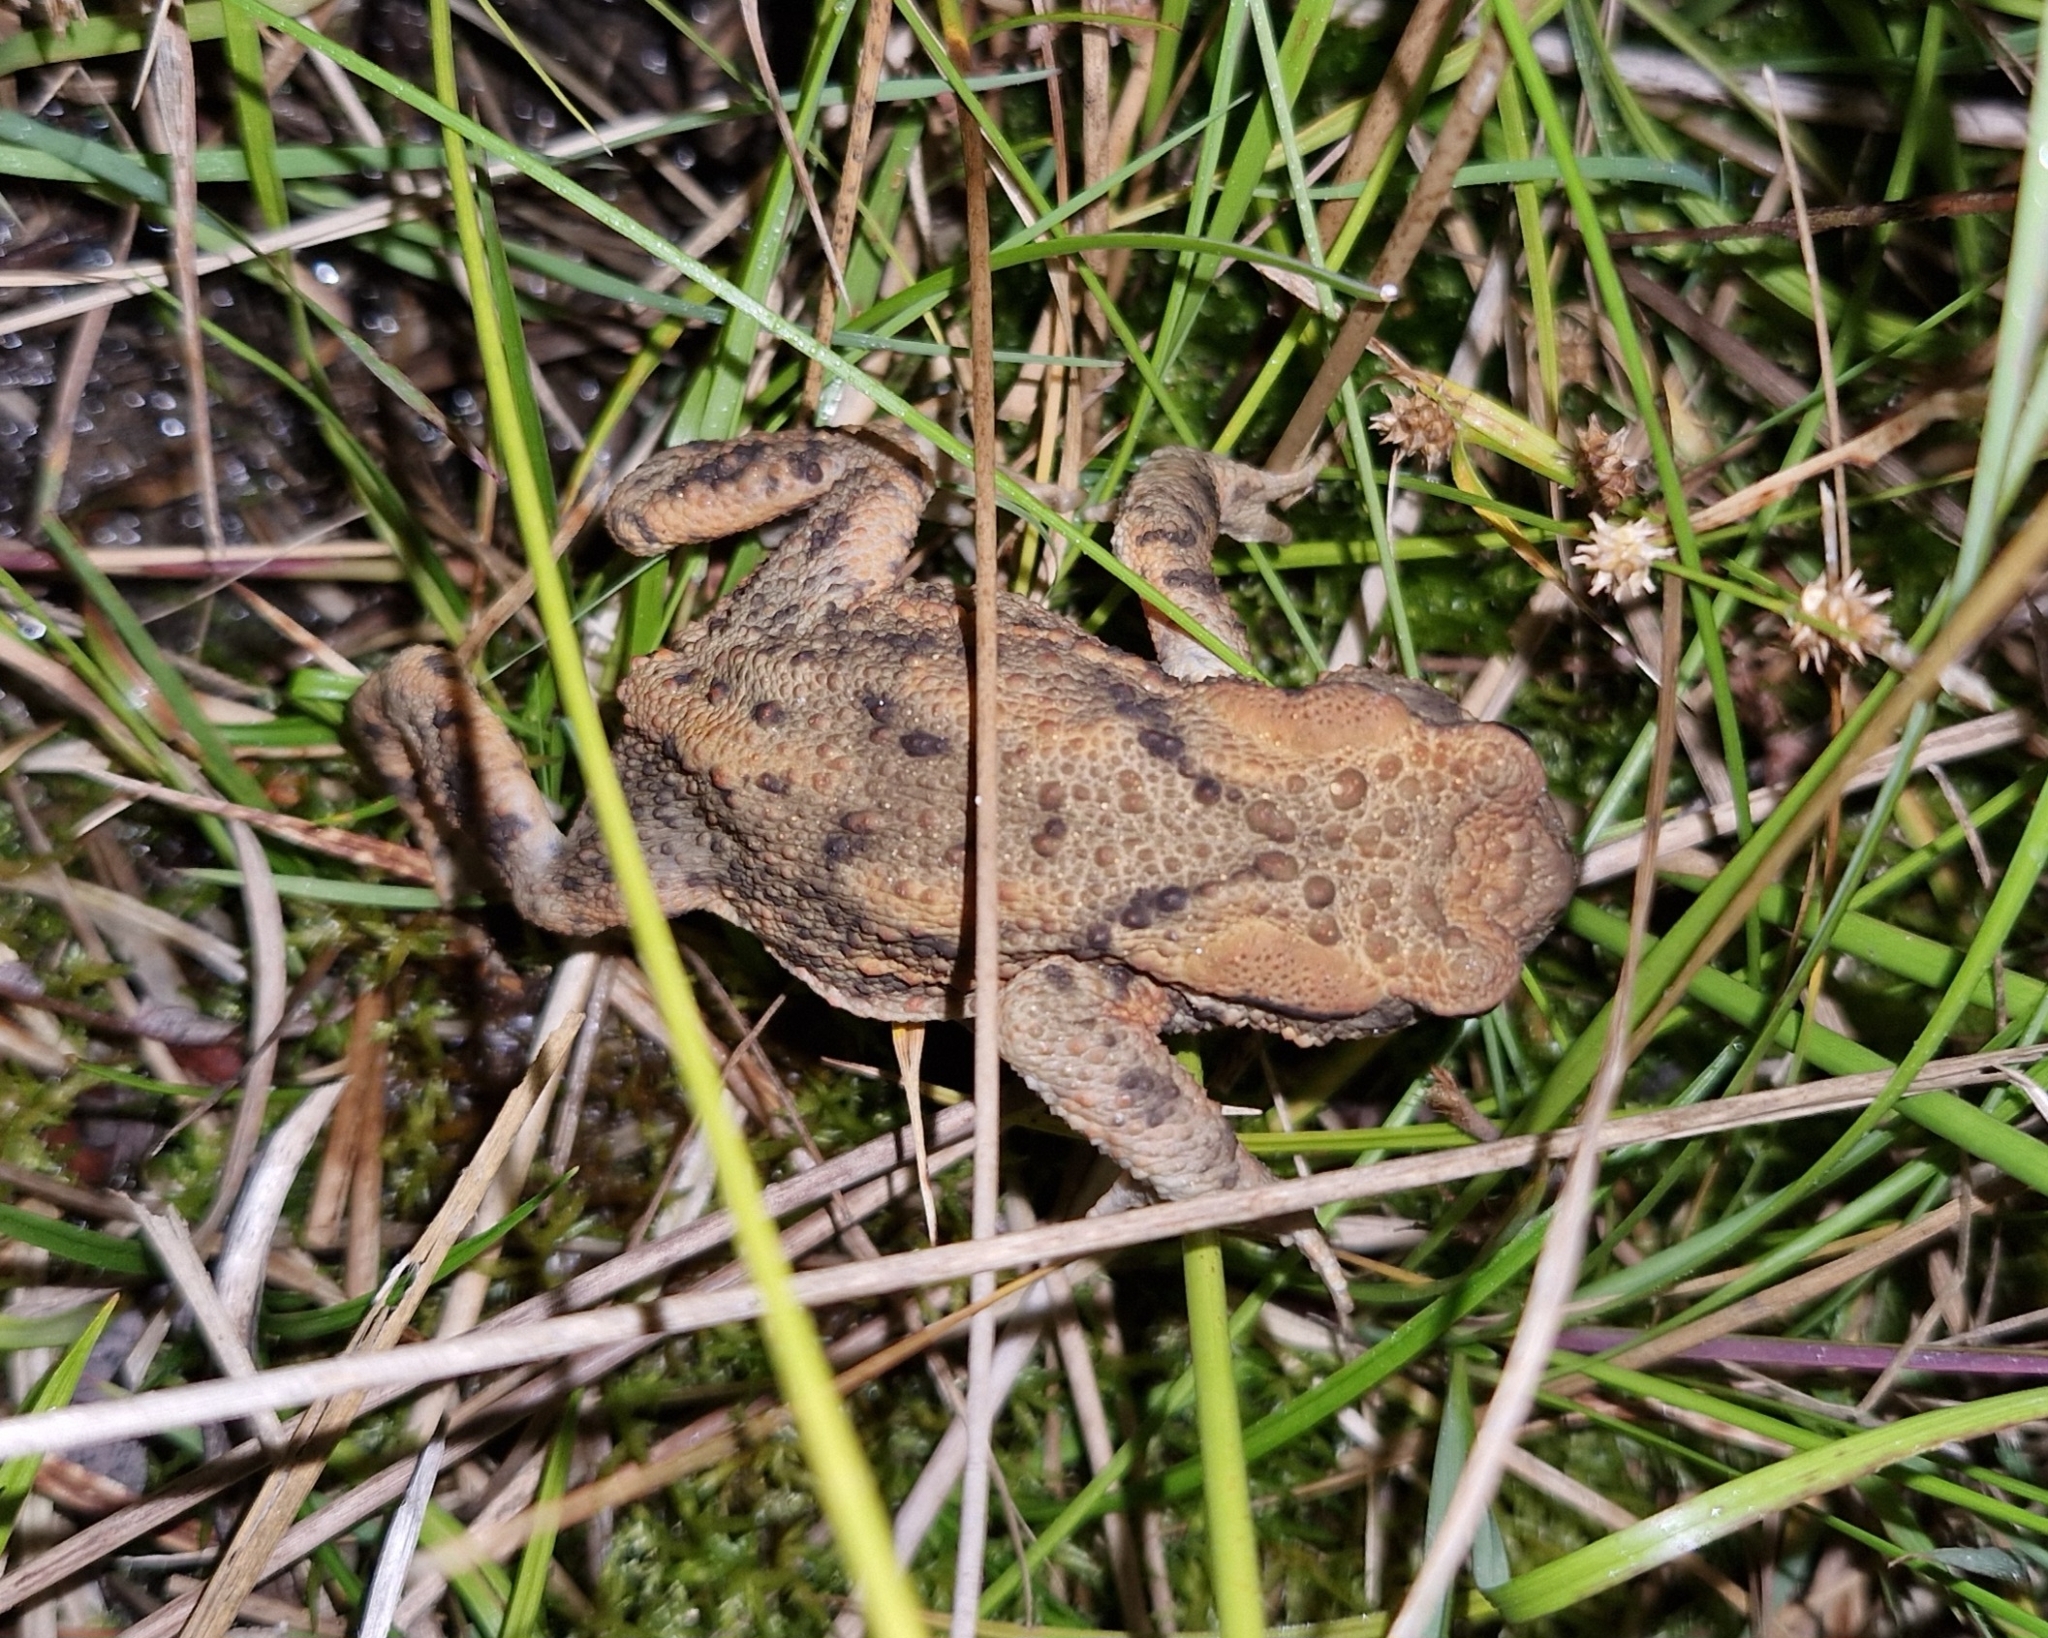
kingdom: Animalia
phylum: Chordata
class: Amphibia
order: Anura
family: Bufonidae
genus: Bufo
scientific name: Bufo bufo
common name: Common toad
